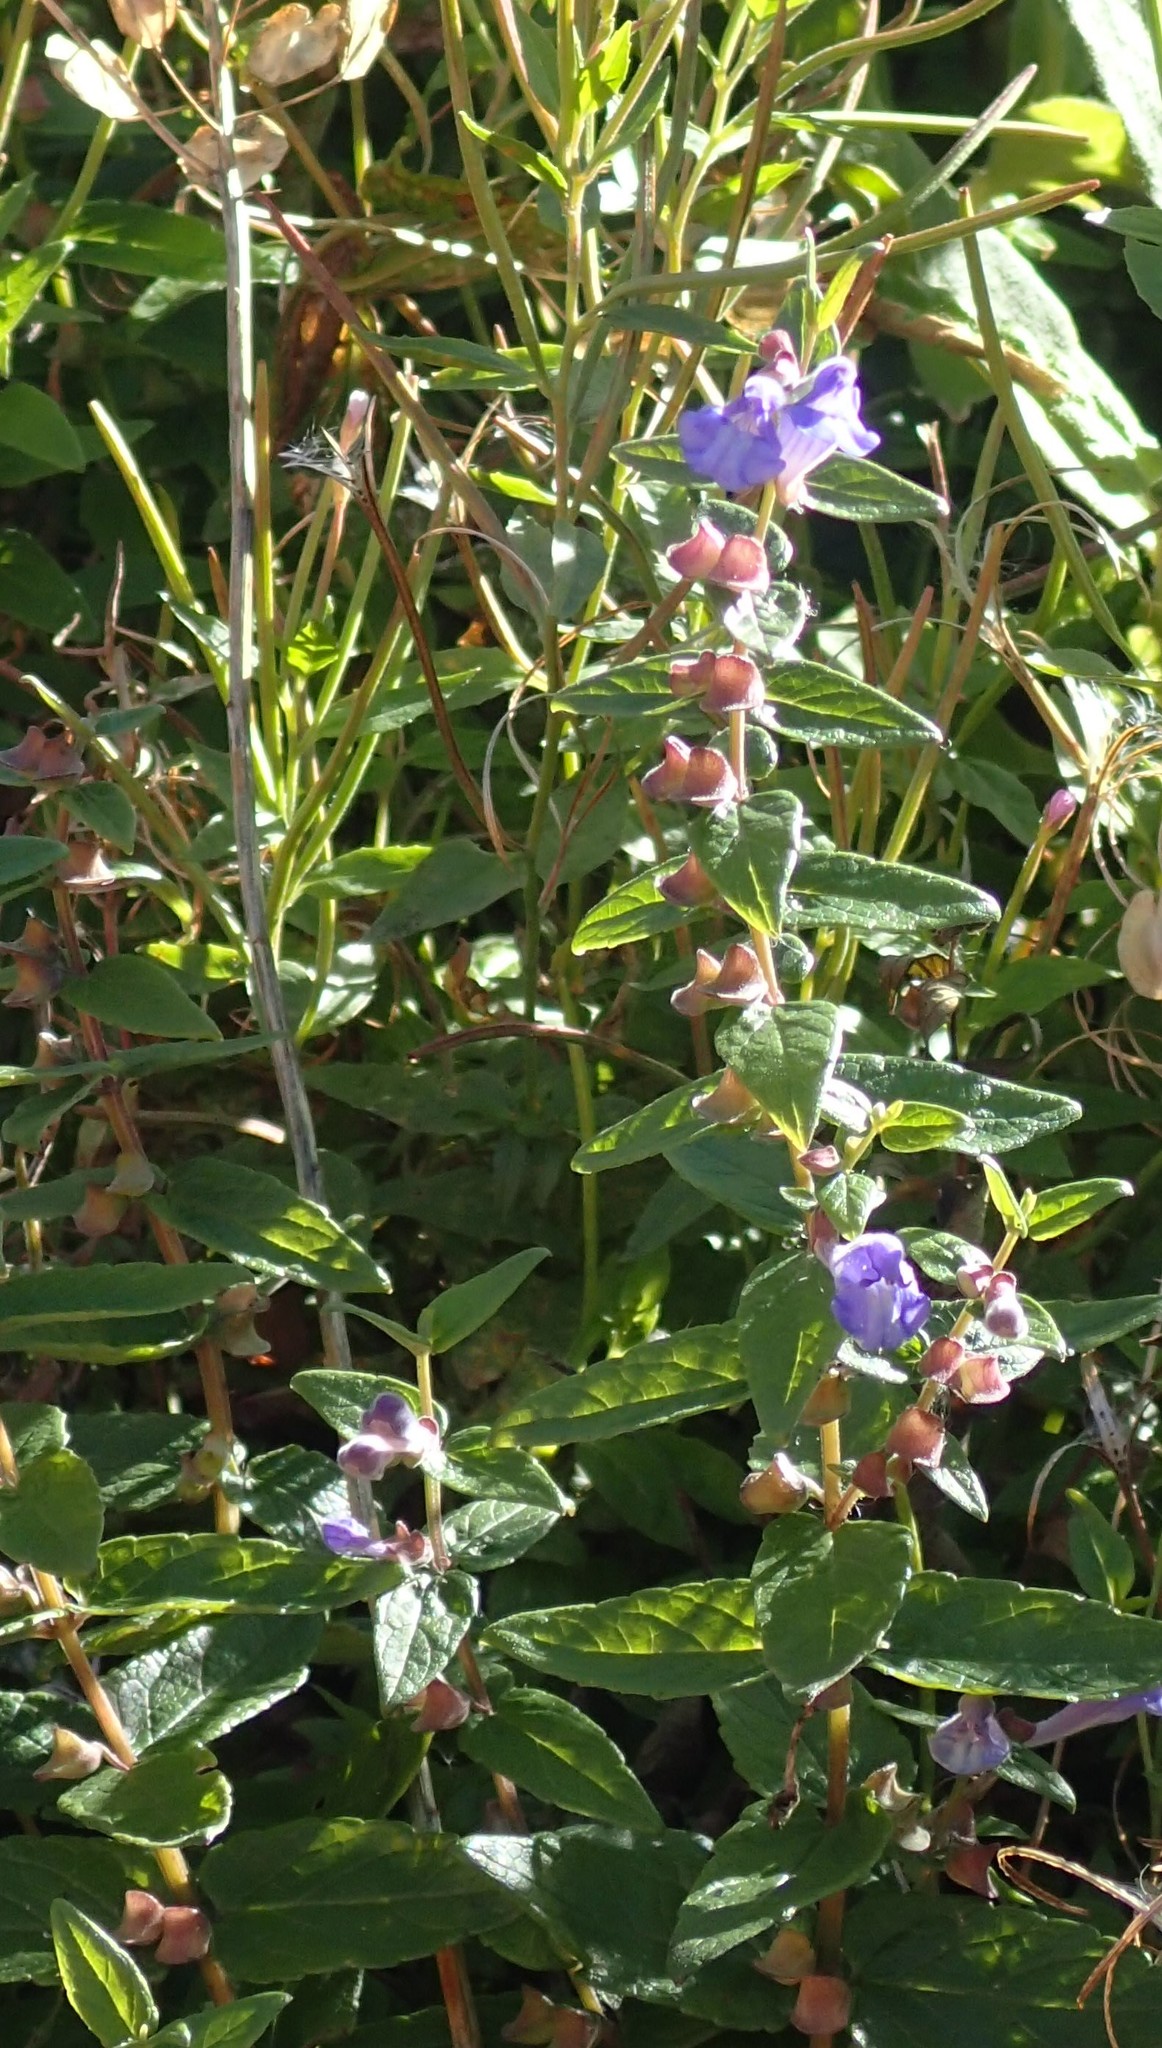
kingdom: Plantae
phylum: Tracheophyta
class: Magnoliopsida
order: Lamiales
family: Lamiaceae
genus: Scutellaria
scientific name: Scutellaria galericulata
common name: Skullcap
